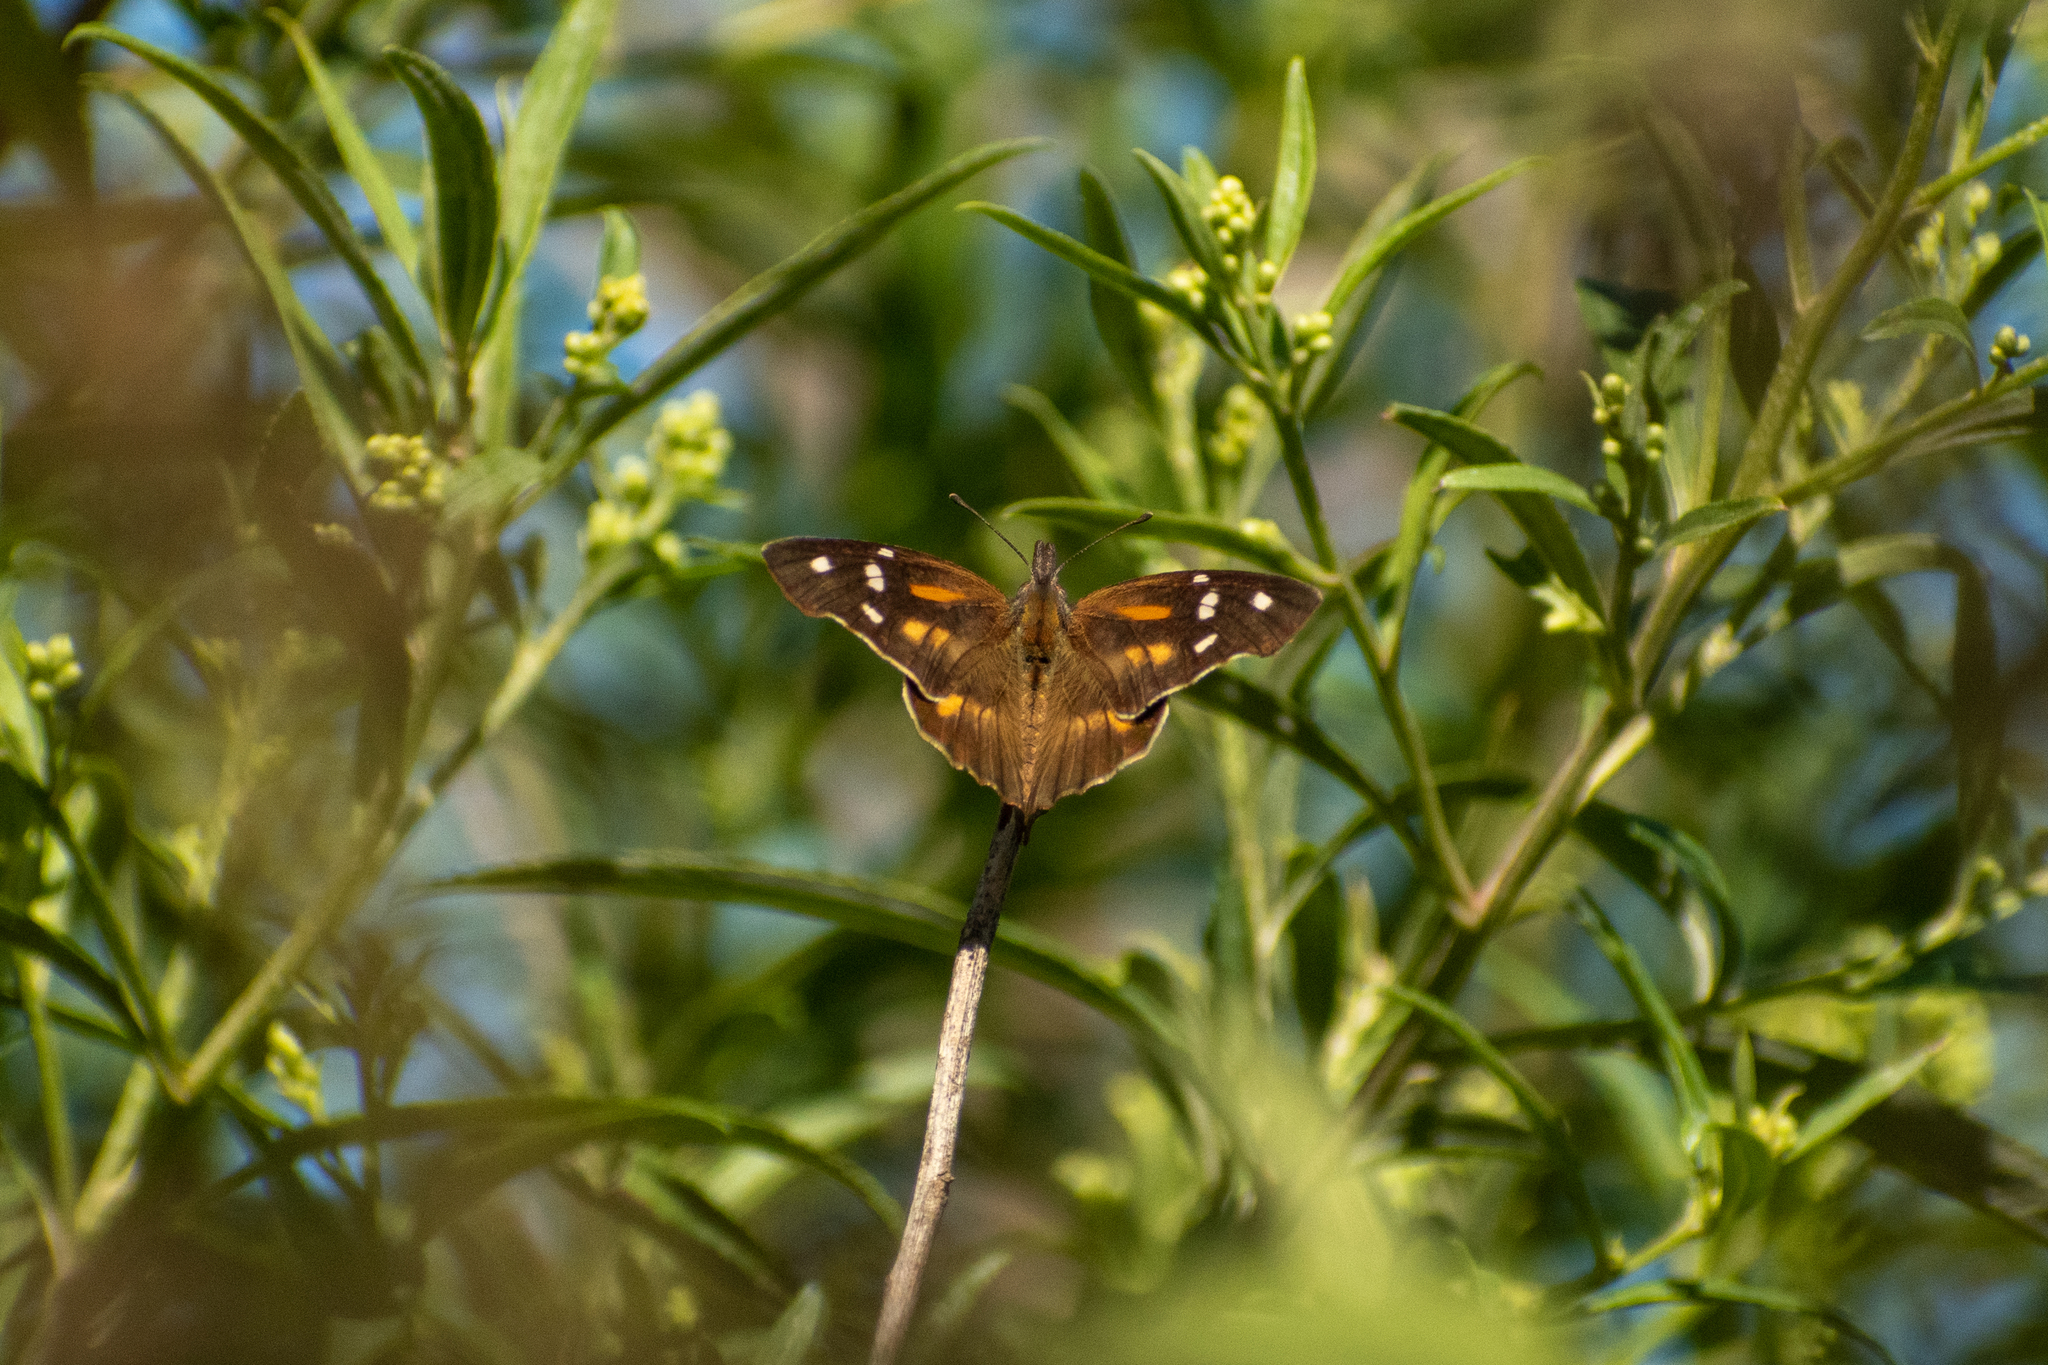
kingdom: Animalia
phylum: Arthropoda
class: Insecta
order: Lepidoptera
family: Nymphalidae
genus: Libytheana
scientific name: Libytheana carinenta
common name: American snout
